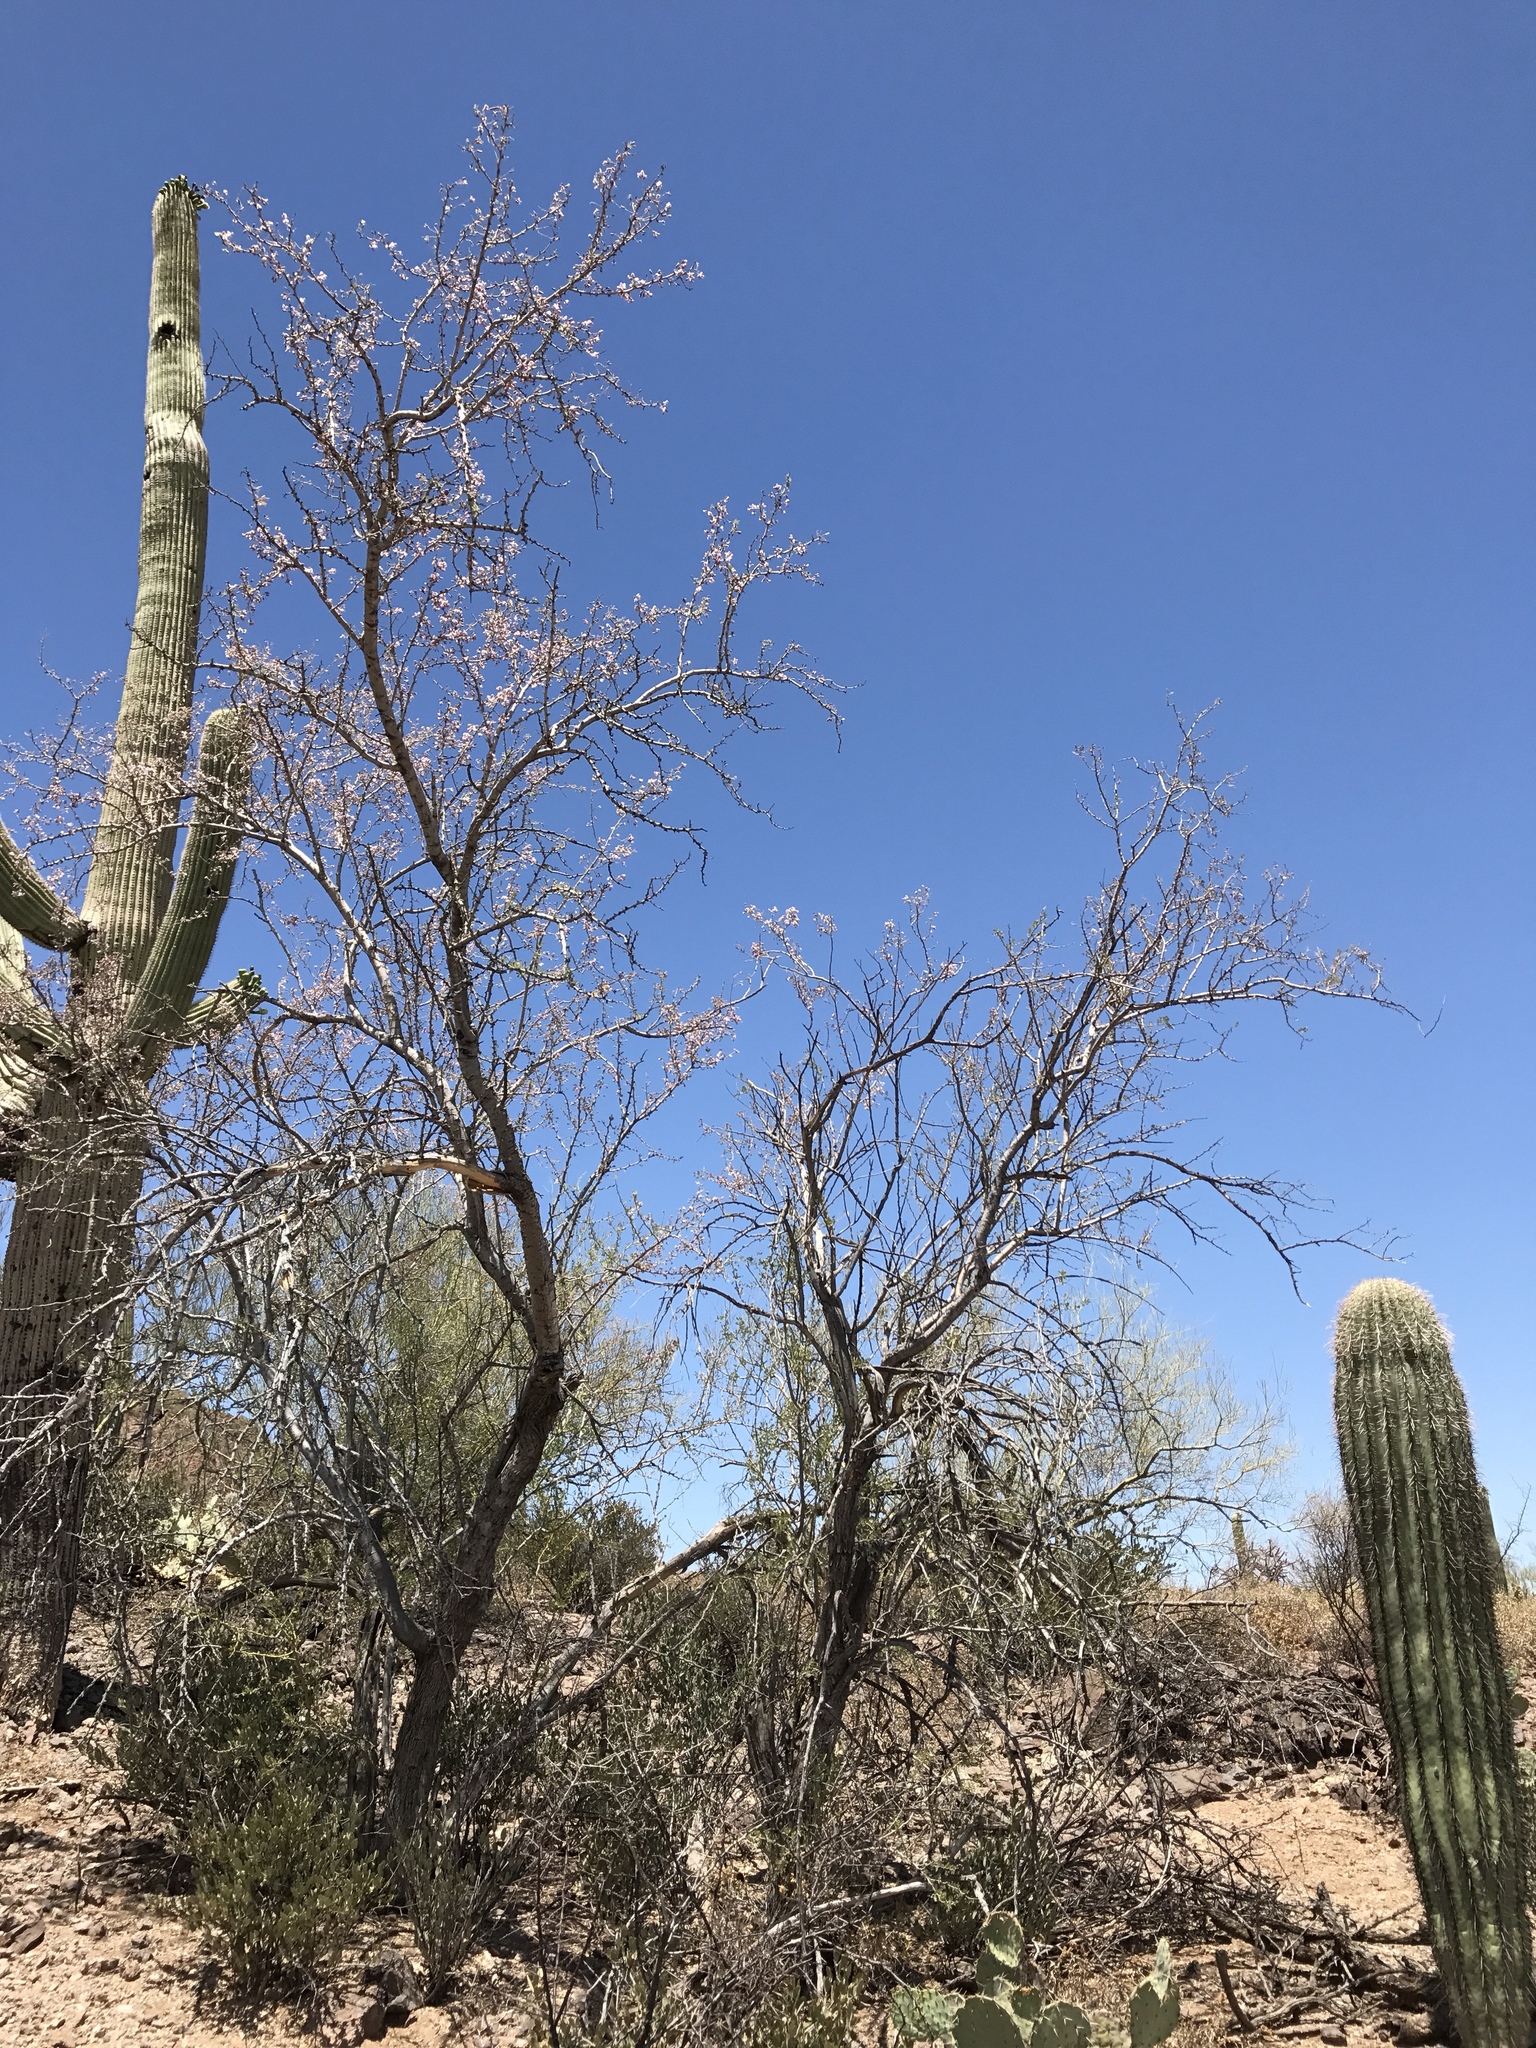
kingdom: Plantae
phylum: Tracheophyta
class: Magnoliopsida
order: Fabales
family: Fabaceae
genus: Olneya
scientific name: Olneya tesota
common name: Desert ironwood
